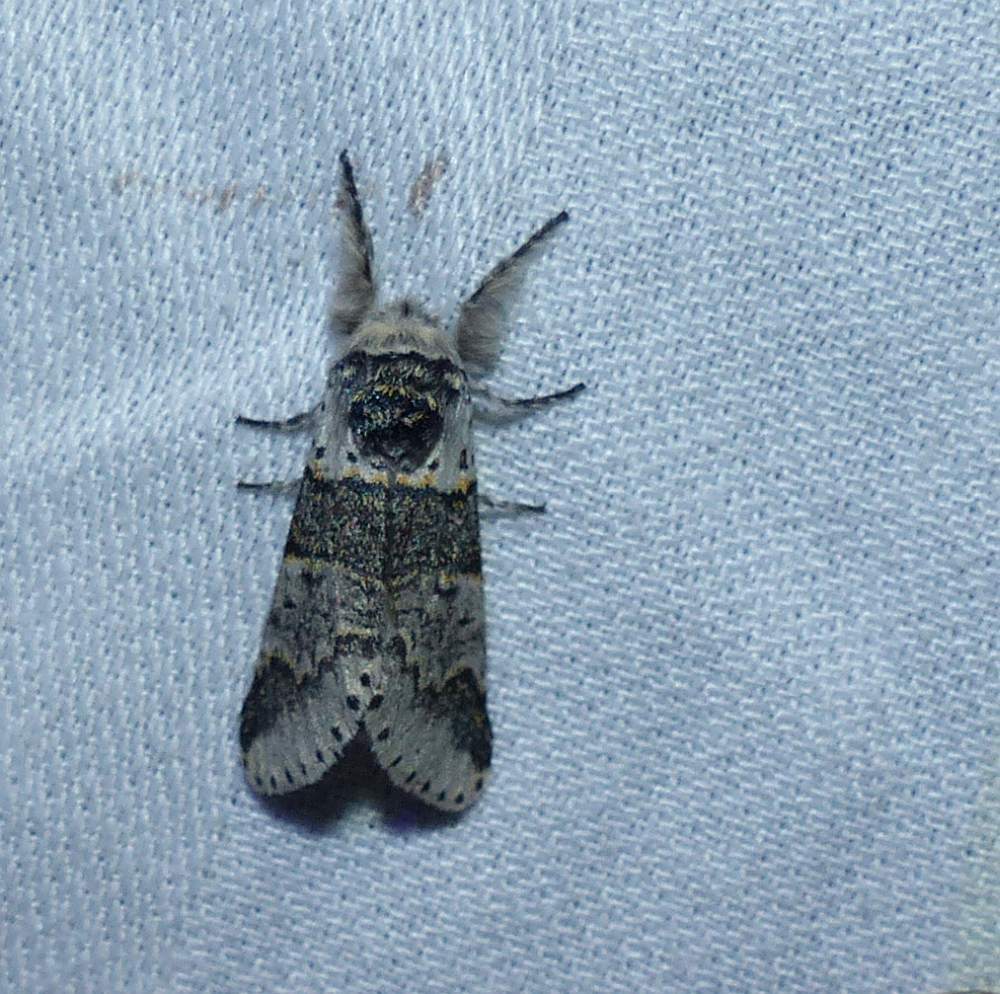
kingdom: Animalia
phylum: Arthropoda
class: Insecta
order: Lepidoptera
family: Notodontidae
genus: Furcula
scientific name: Furcula occidentalis
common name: Western furcula moth
